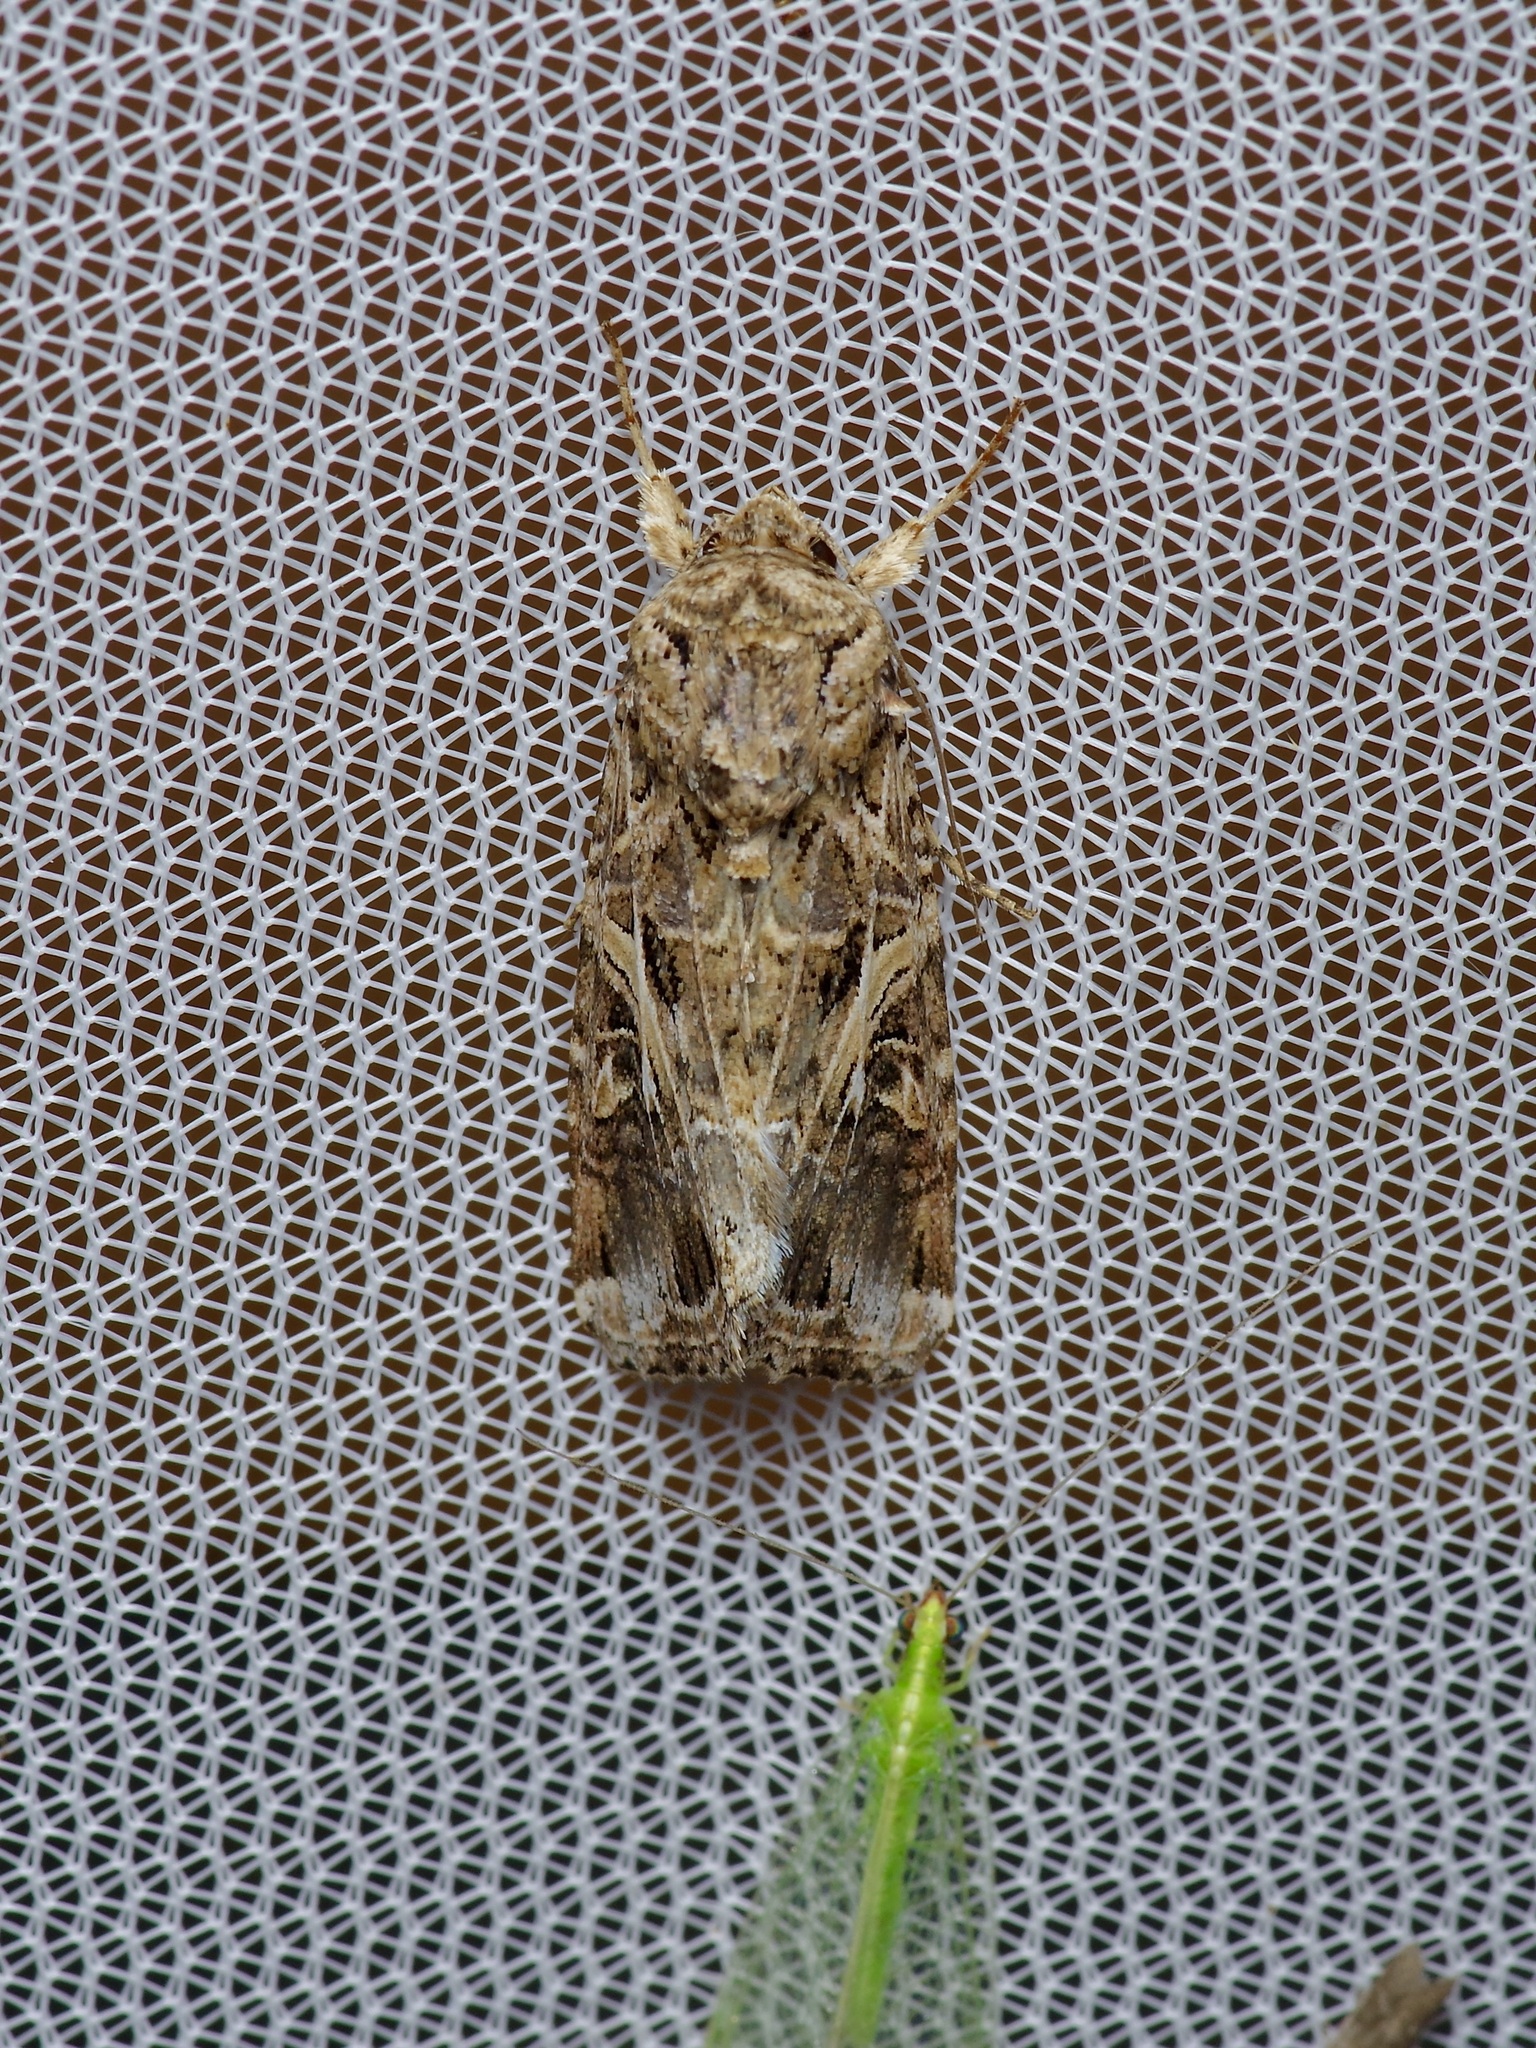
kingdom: Animalia
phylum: Arthropoda
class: Insecta
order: Lepidoptera
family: Noctuidae
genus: Spodoptera
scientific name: Spodoptera ornithogalli
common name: Yellow-striped armyworm
